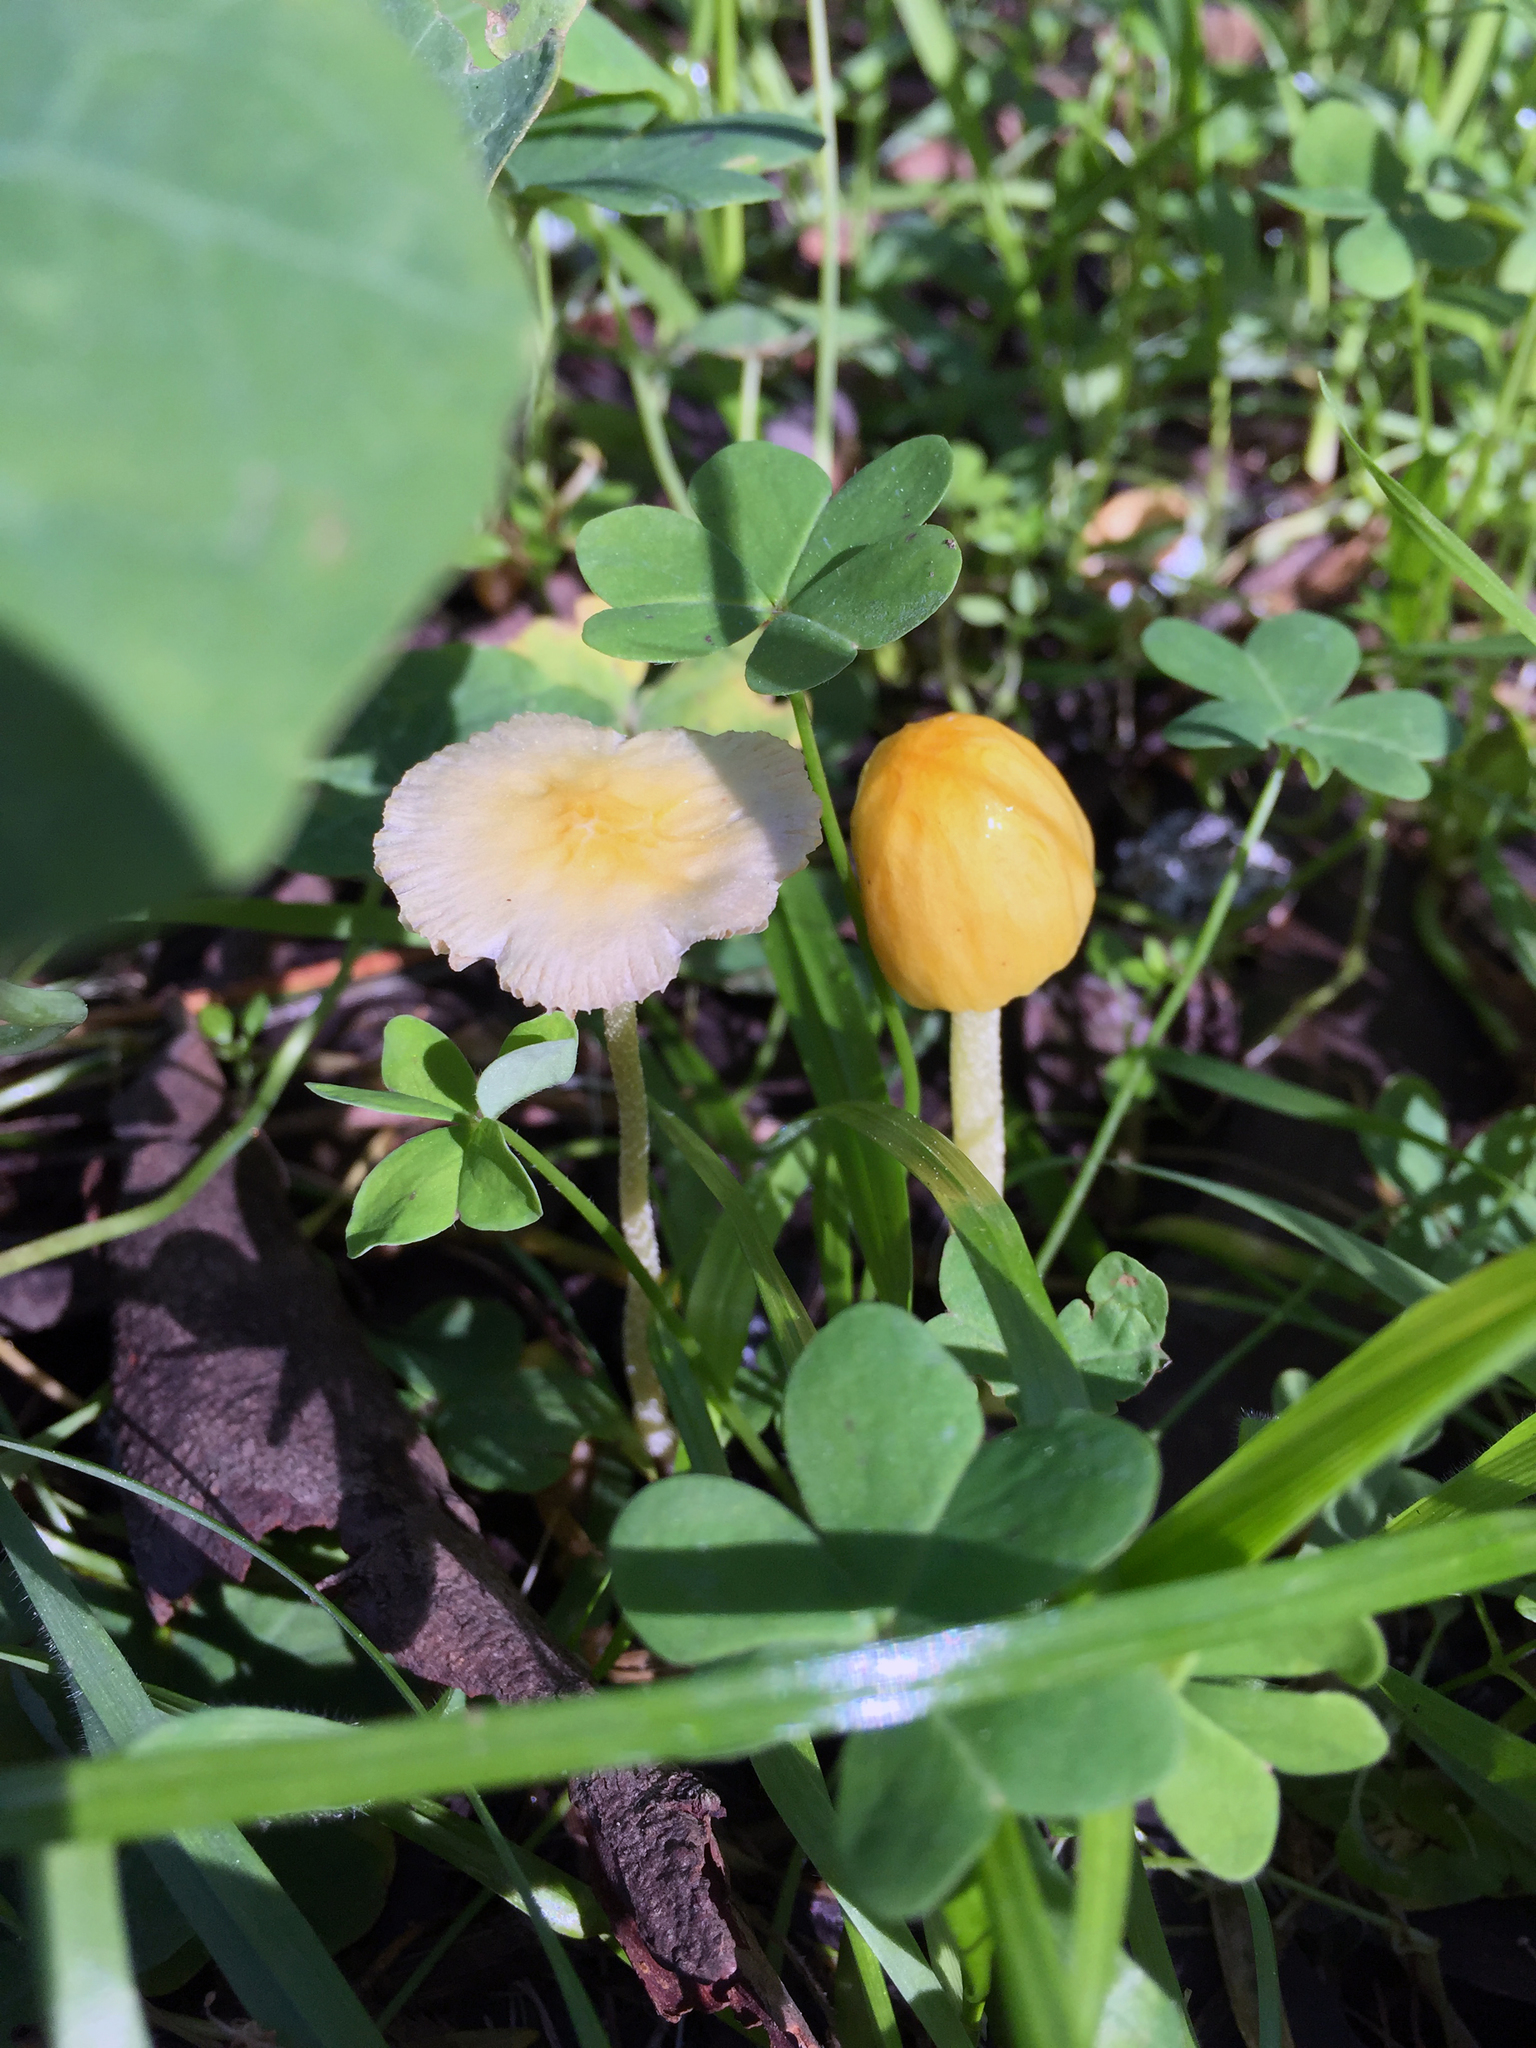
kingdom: Fungi
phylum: Basidiomycota
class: Agaricomycetes
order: Agaricales
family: Bolbitiaceae
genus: Bolbitius
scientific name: Bolbitius titubans
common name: Yellow fieldcap
